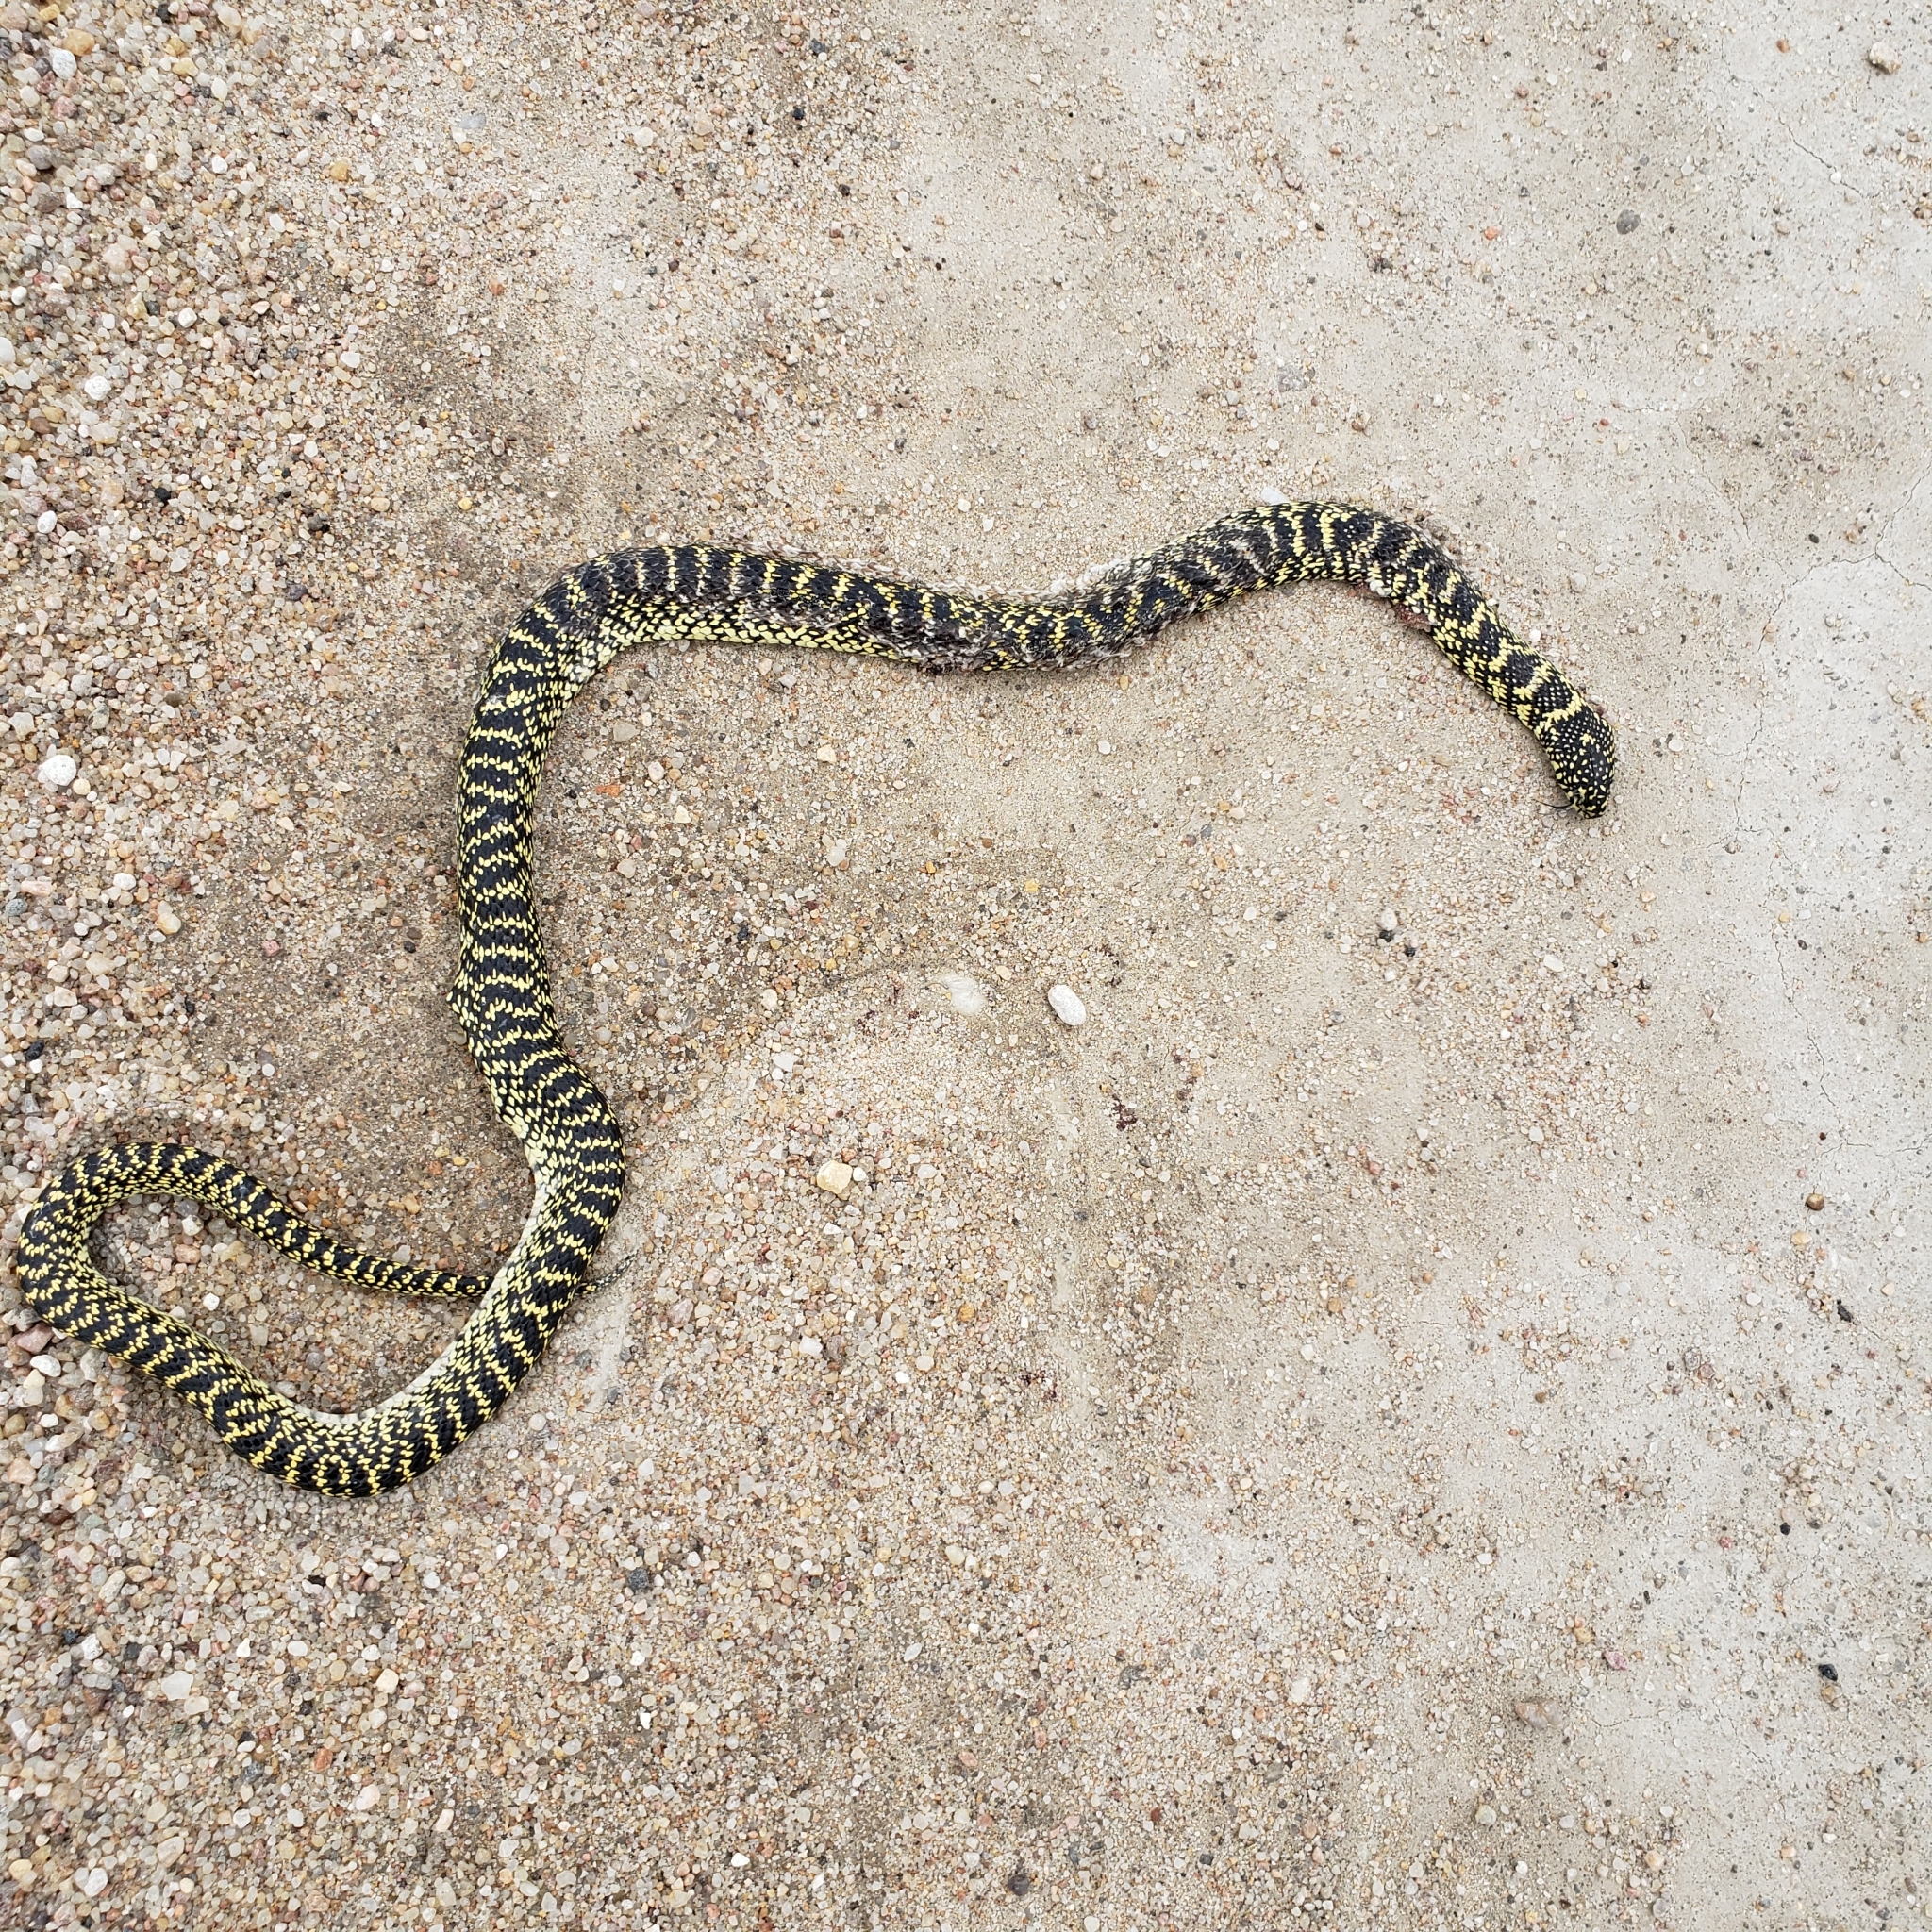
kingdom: Animalia
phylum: Chordata
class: Squamata
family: Colubridae
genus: Lampropeltis
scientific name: Lampropeltis holbrooki
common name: Speckled kingsnake
